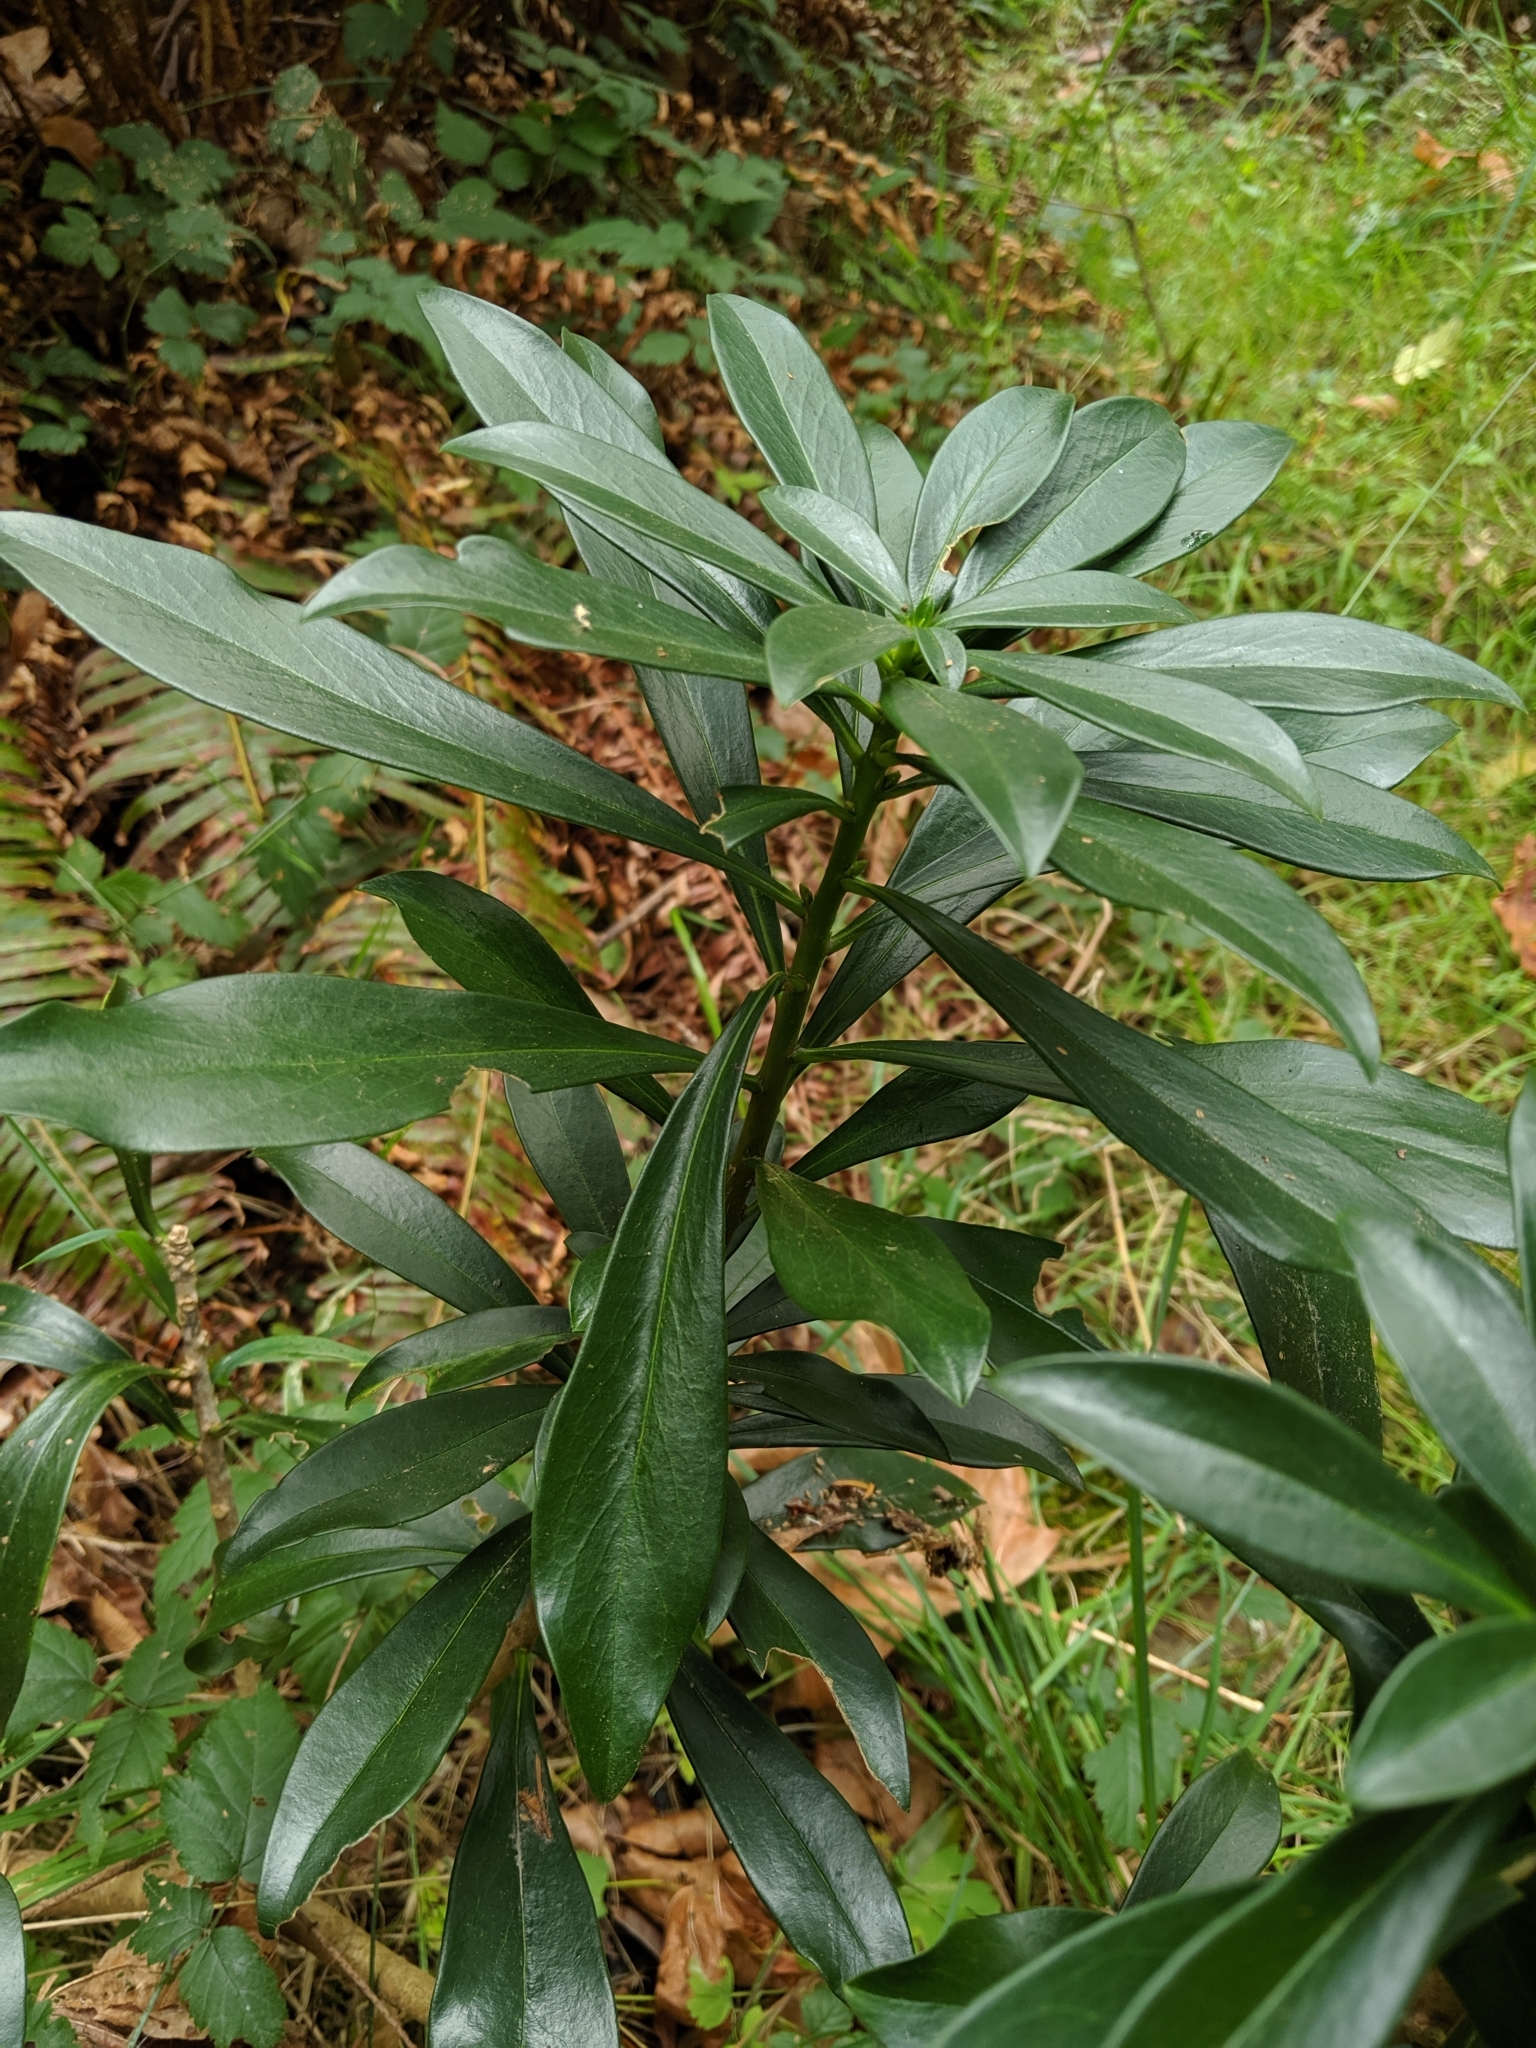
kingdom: Plantae
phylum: Tracheophyta
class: Magnoliopsida
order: Malvales
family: Thymelaeaceae
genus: Daphne
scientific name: Daphne laureola
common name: Spurge-laurel
